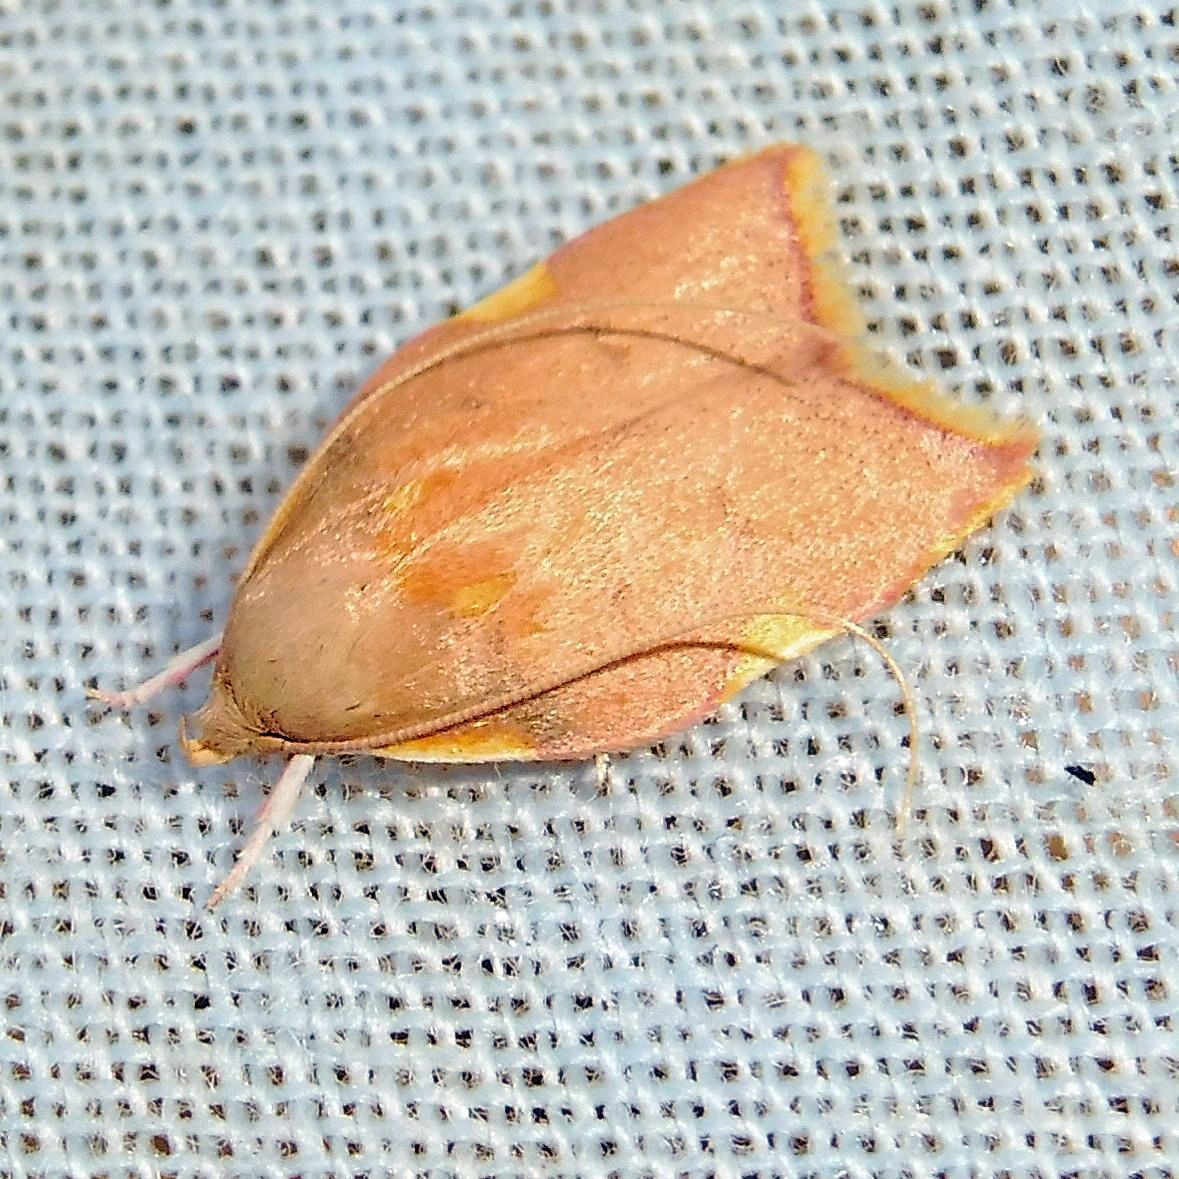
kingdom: Animalia
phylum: Arthropoda
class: Insecta
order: Lepidoptera
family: Peleopodidae
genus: Carcina
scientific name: Carcina quercana
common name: Moth
